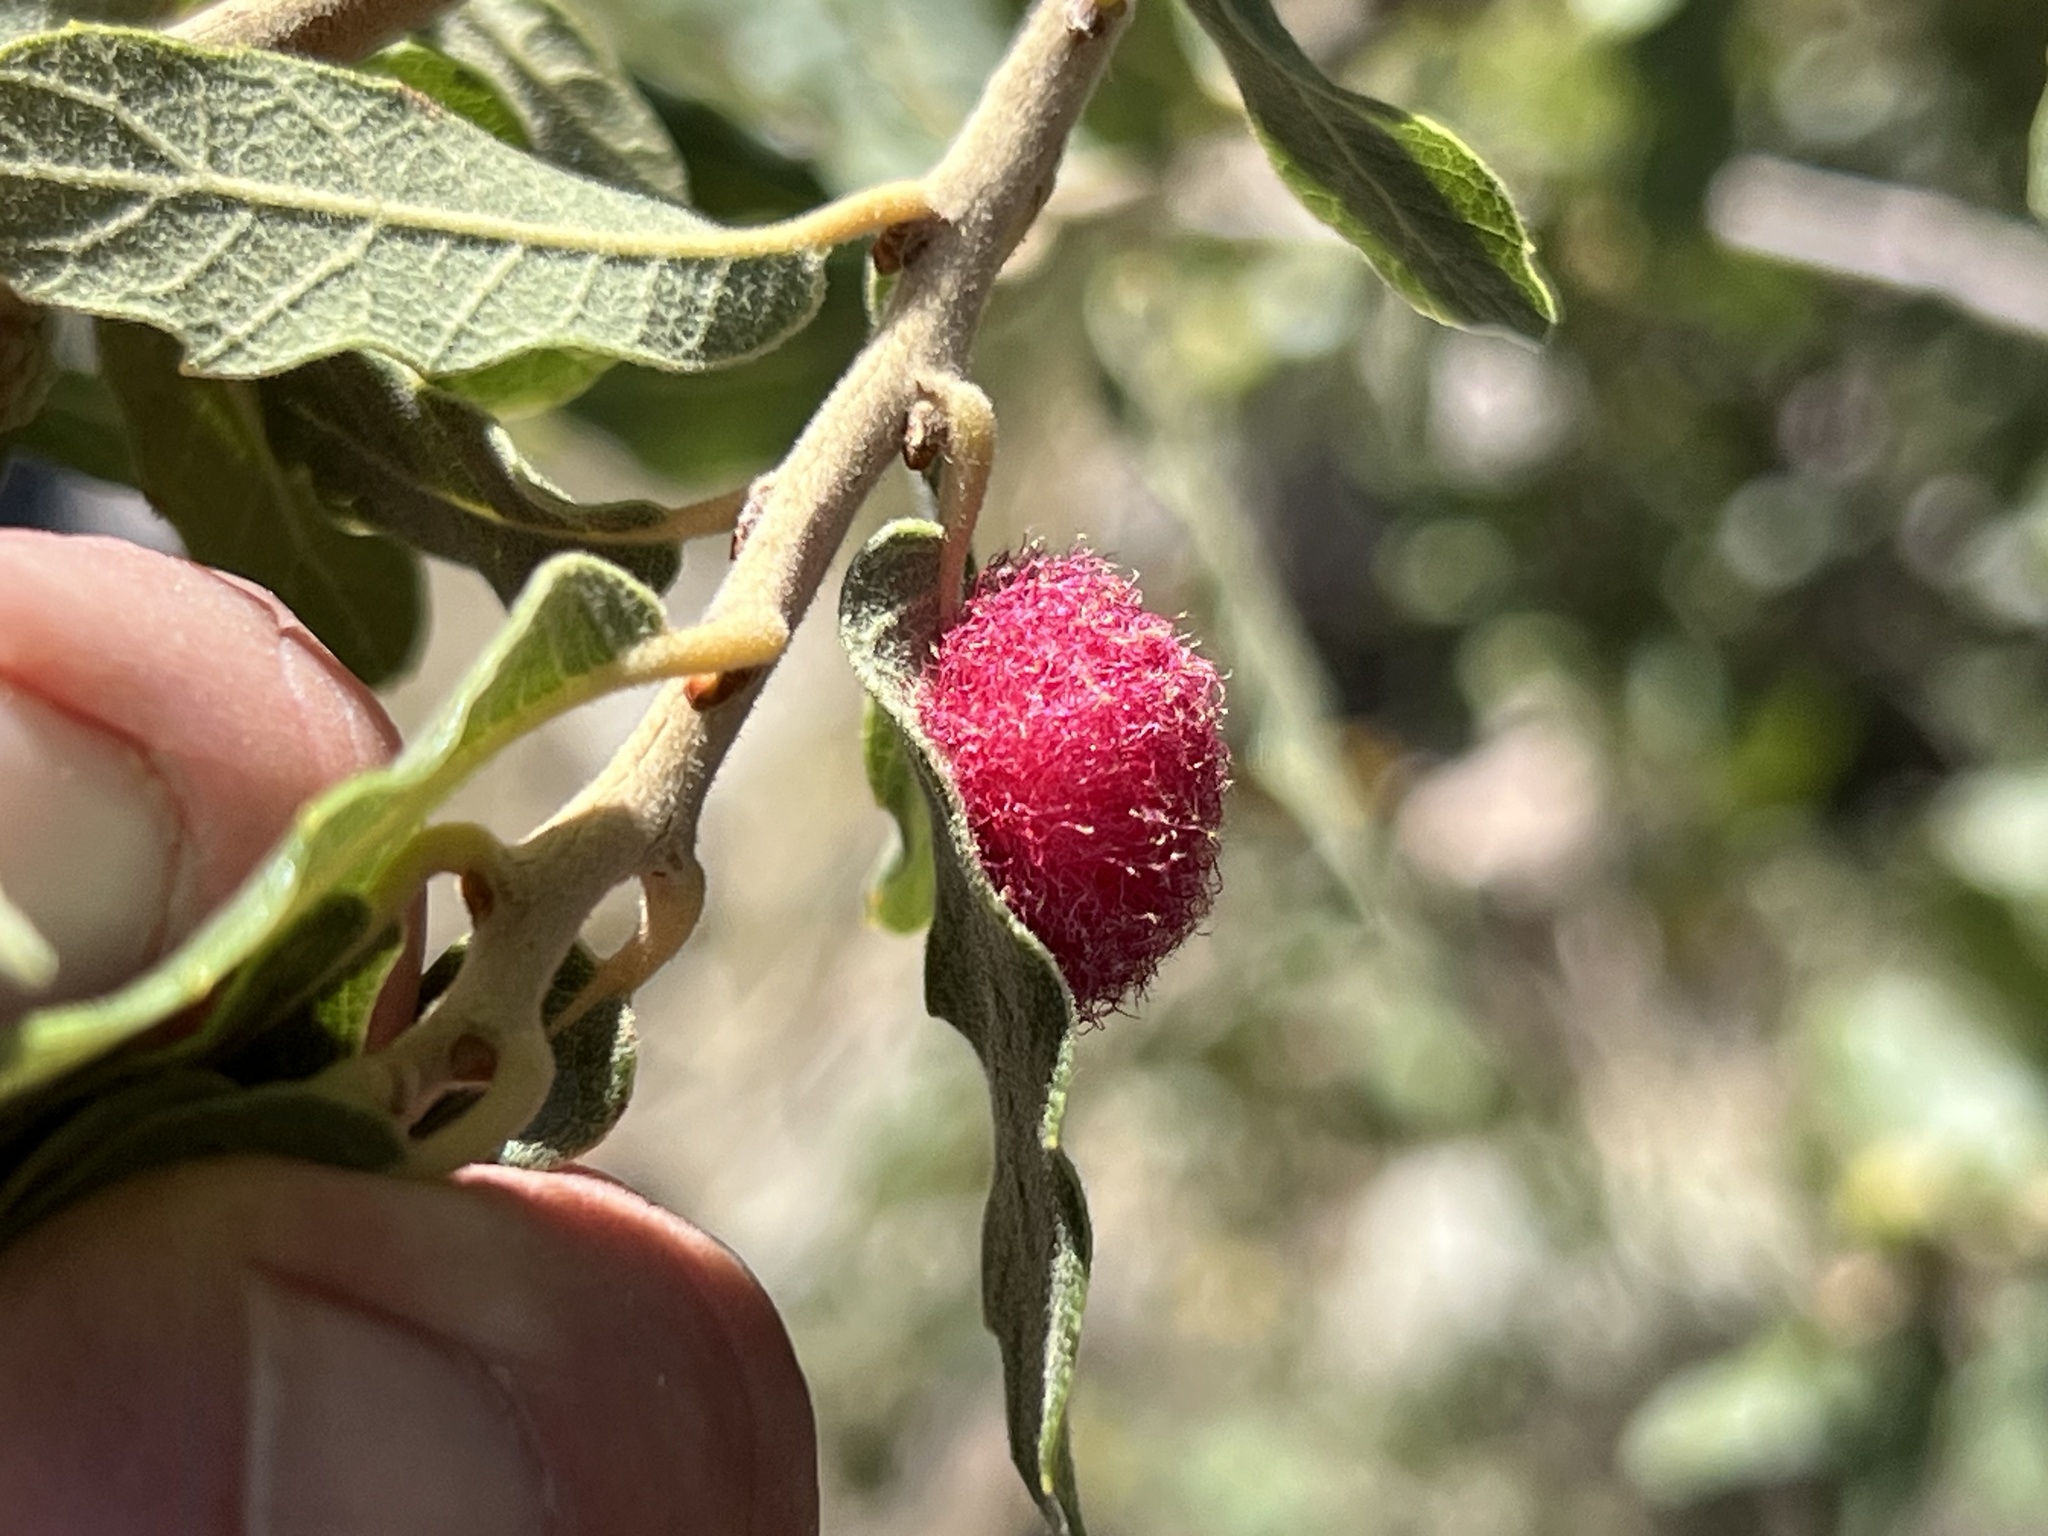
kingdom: Animalia
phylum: Arthropoda
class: Insecta
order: Hymenoptera
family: Cynipidae
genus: Cynips
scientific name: Cynips
